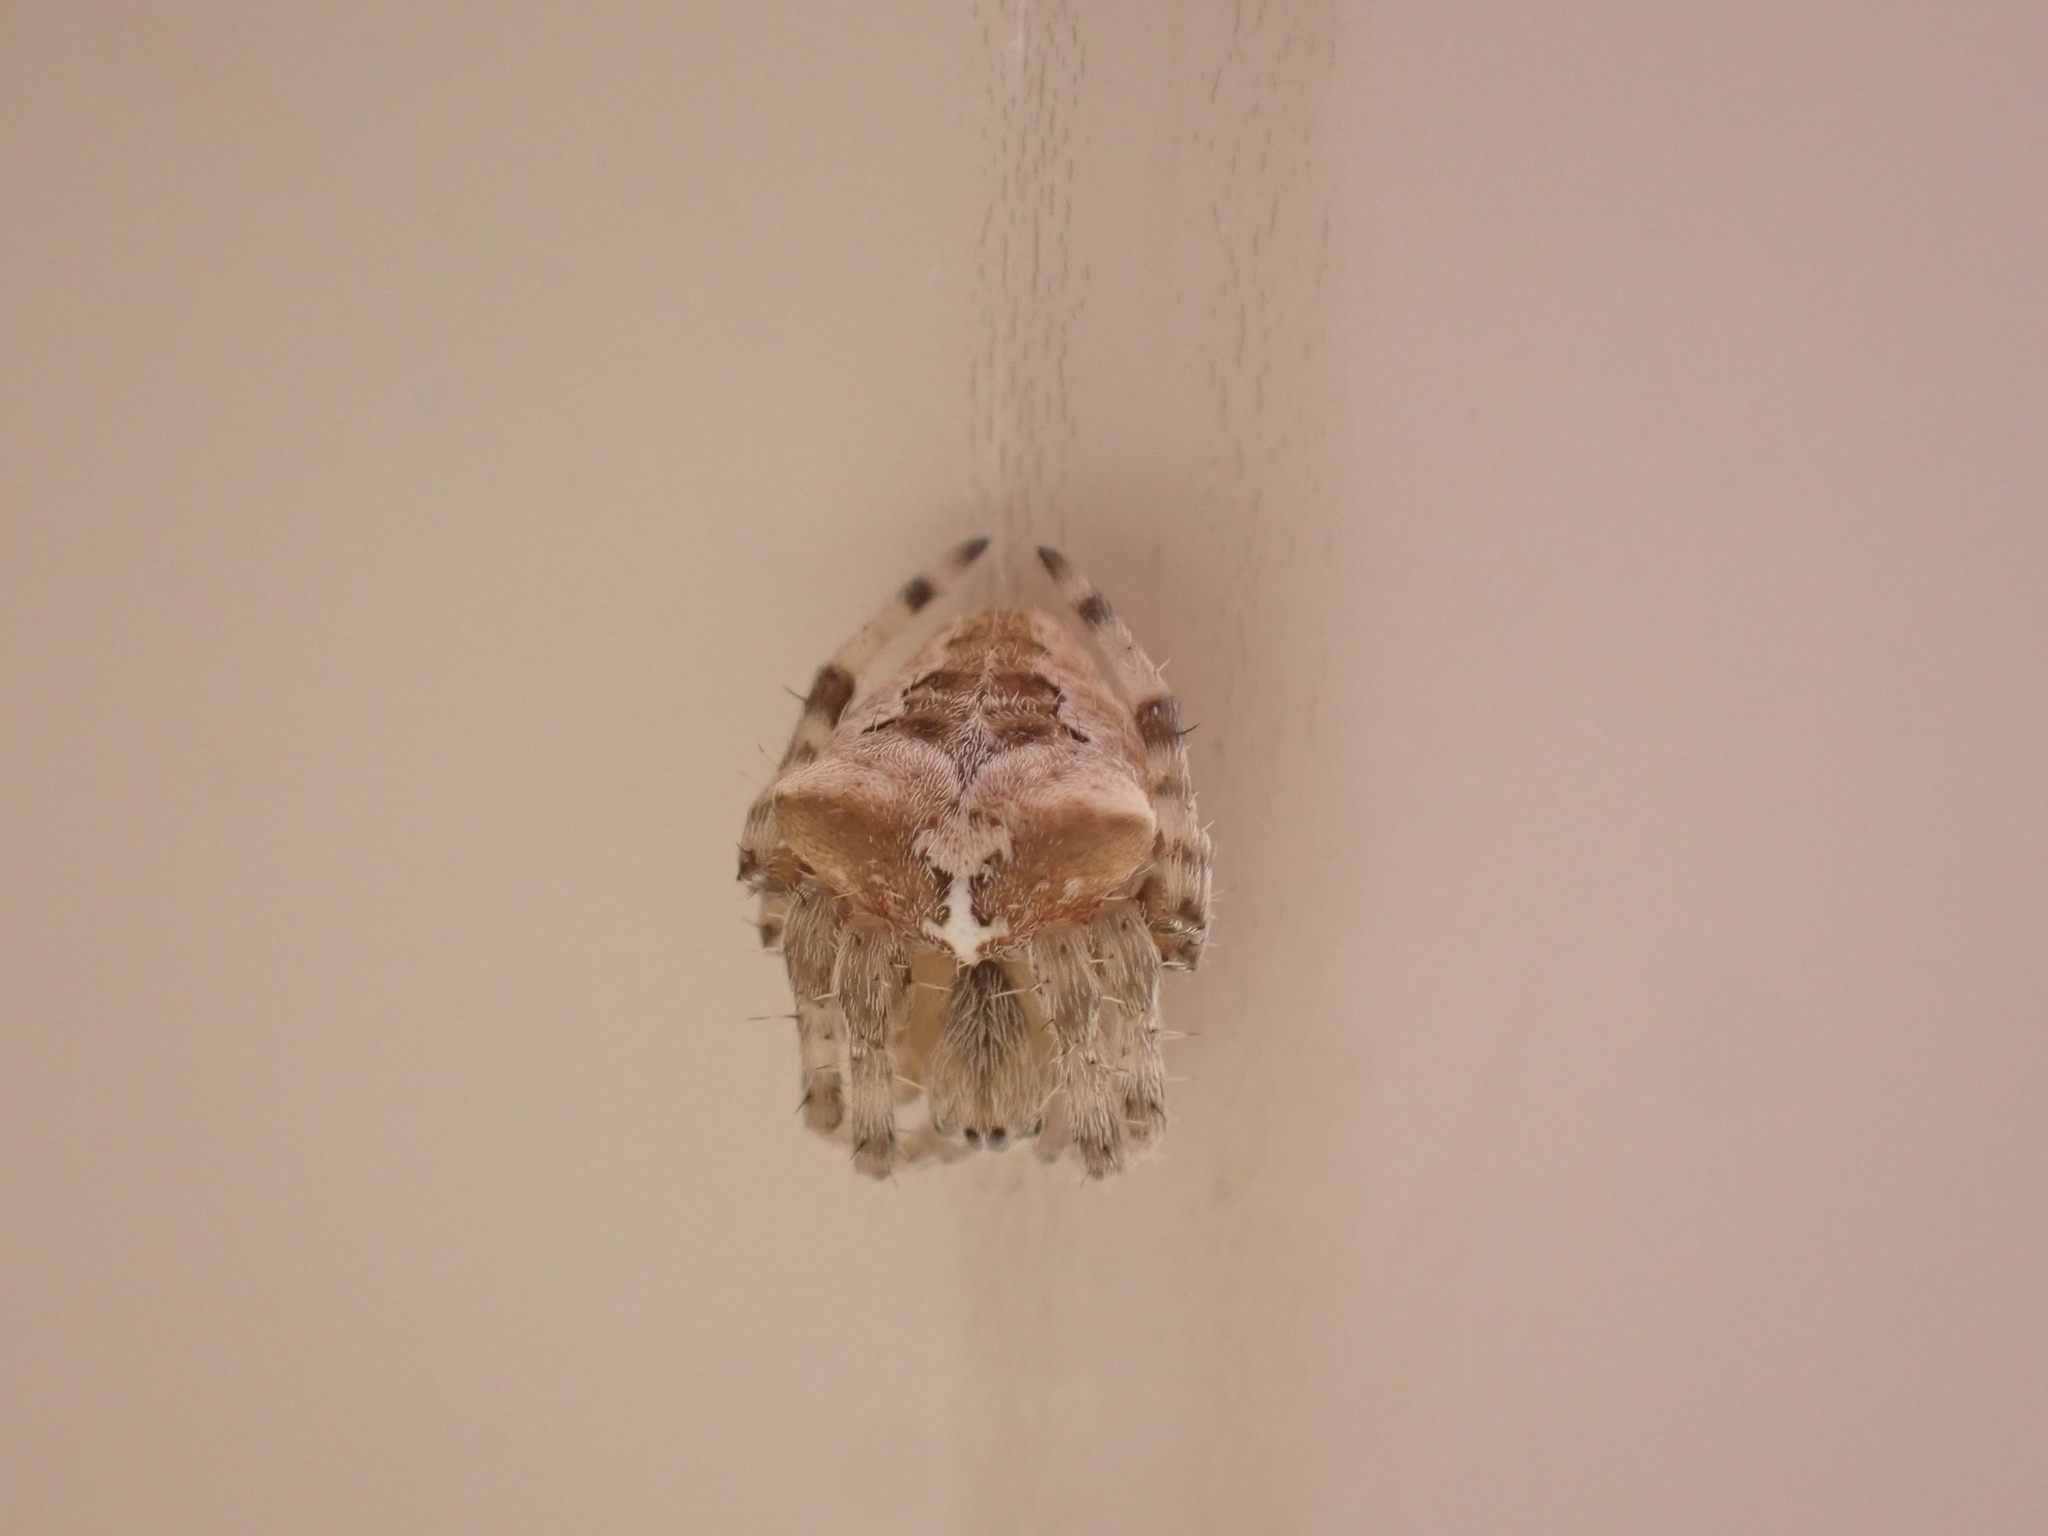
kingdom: Animalia
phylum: Arthropoda
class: Arachnida
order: Araneae
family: Araneidae
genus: Araneus
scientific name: Araneus gemmoides
